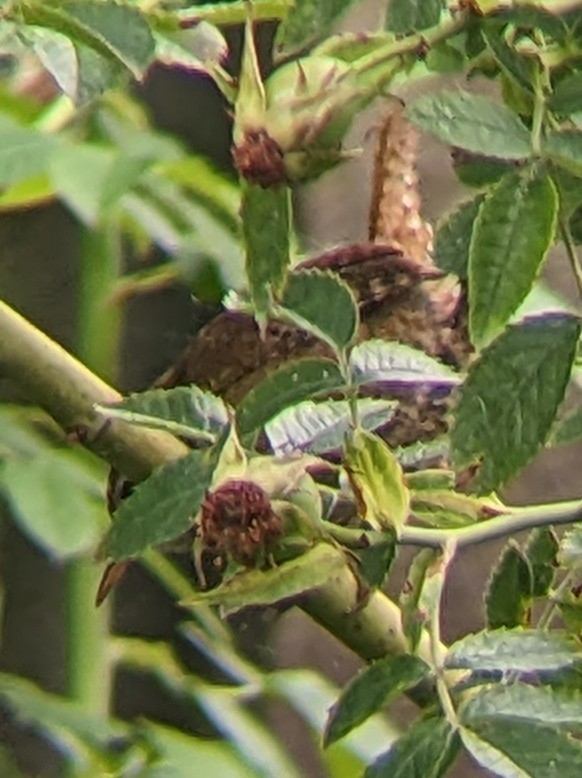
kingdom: Animalia
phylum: Chordata
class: Aves
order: Passeriformes
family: Troglodytidae
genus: Troglodytes
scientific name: Troglodytes troglodytes
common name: Eurasian wren
